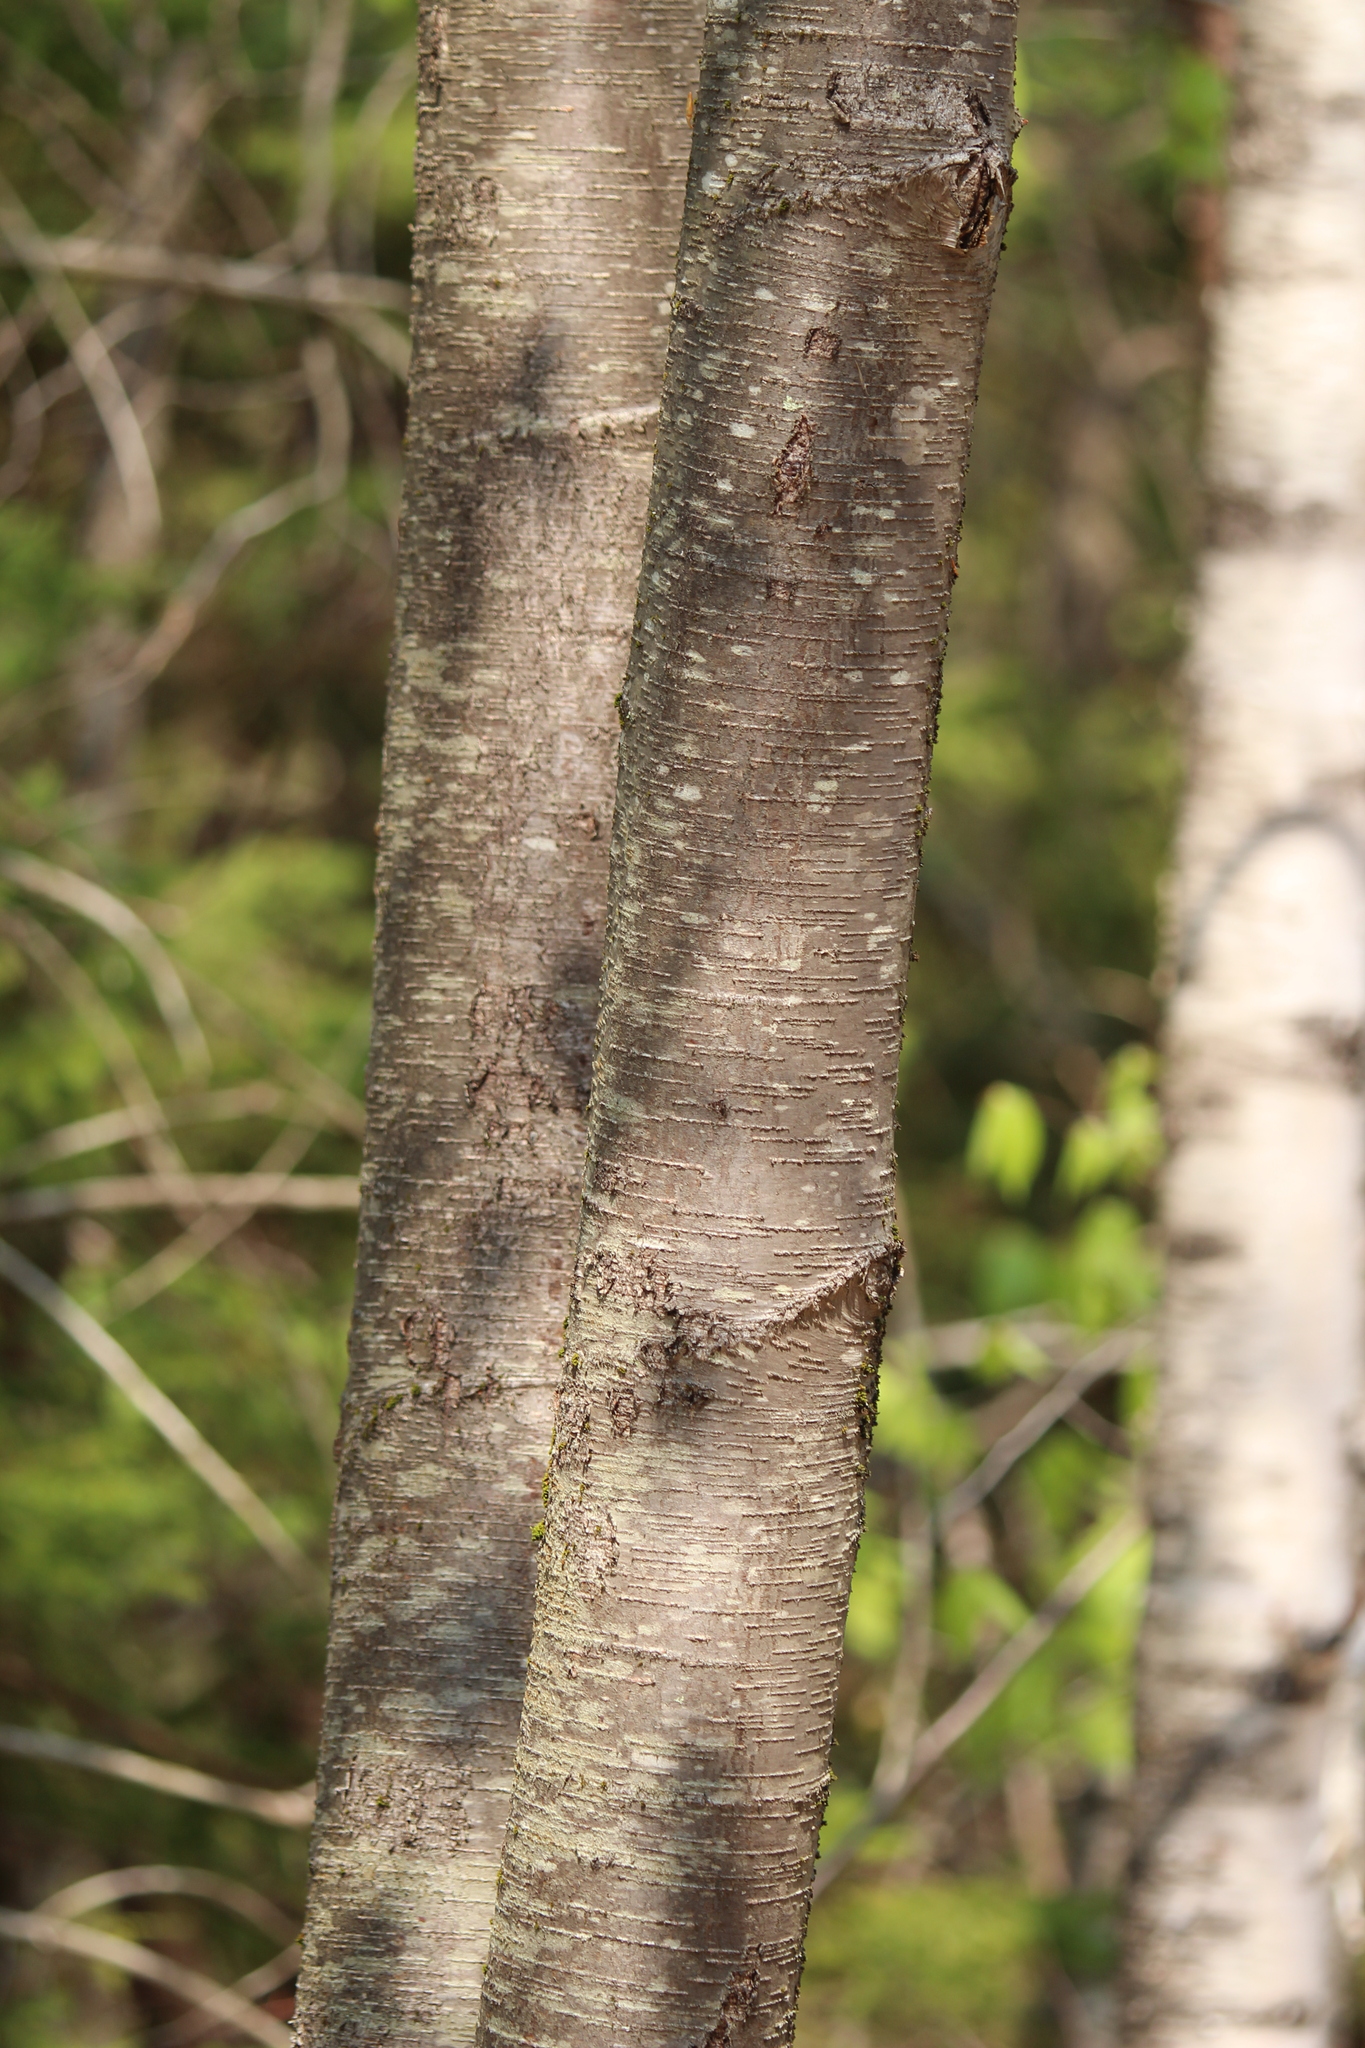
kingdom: Plantae
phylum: Tracheophyta
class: Magnoliopsida
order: Fagales
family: Betulaceae
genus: Betula
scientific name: Betula lenta
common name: Black birch
